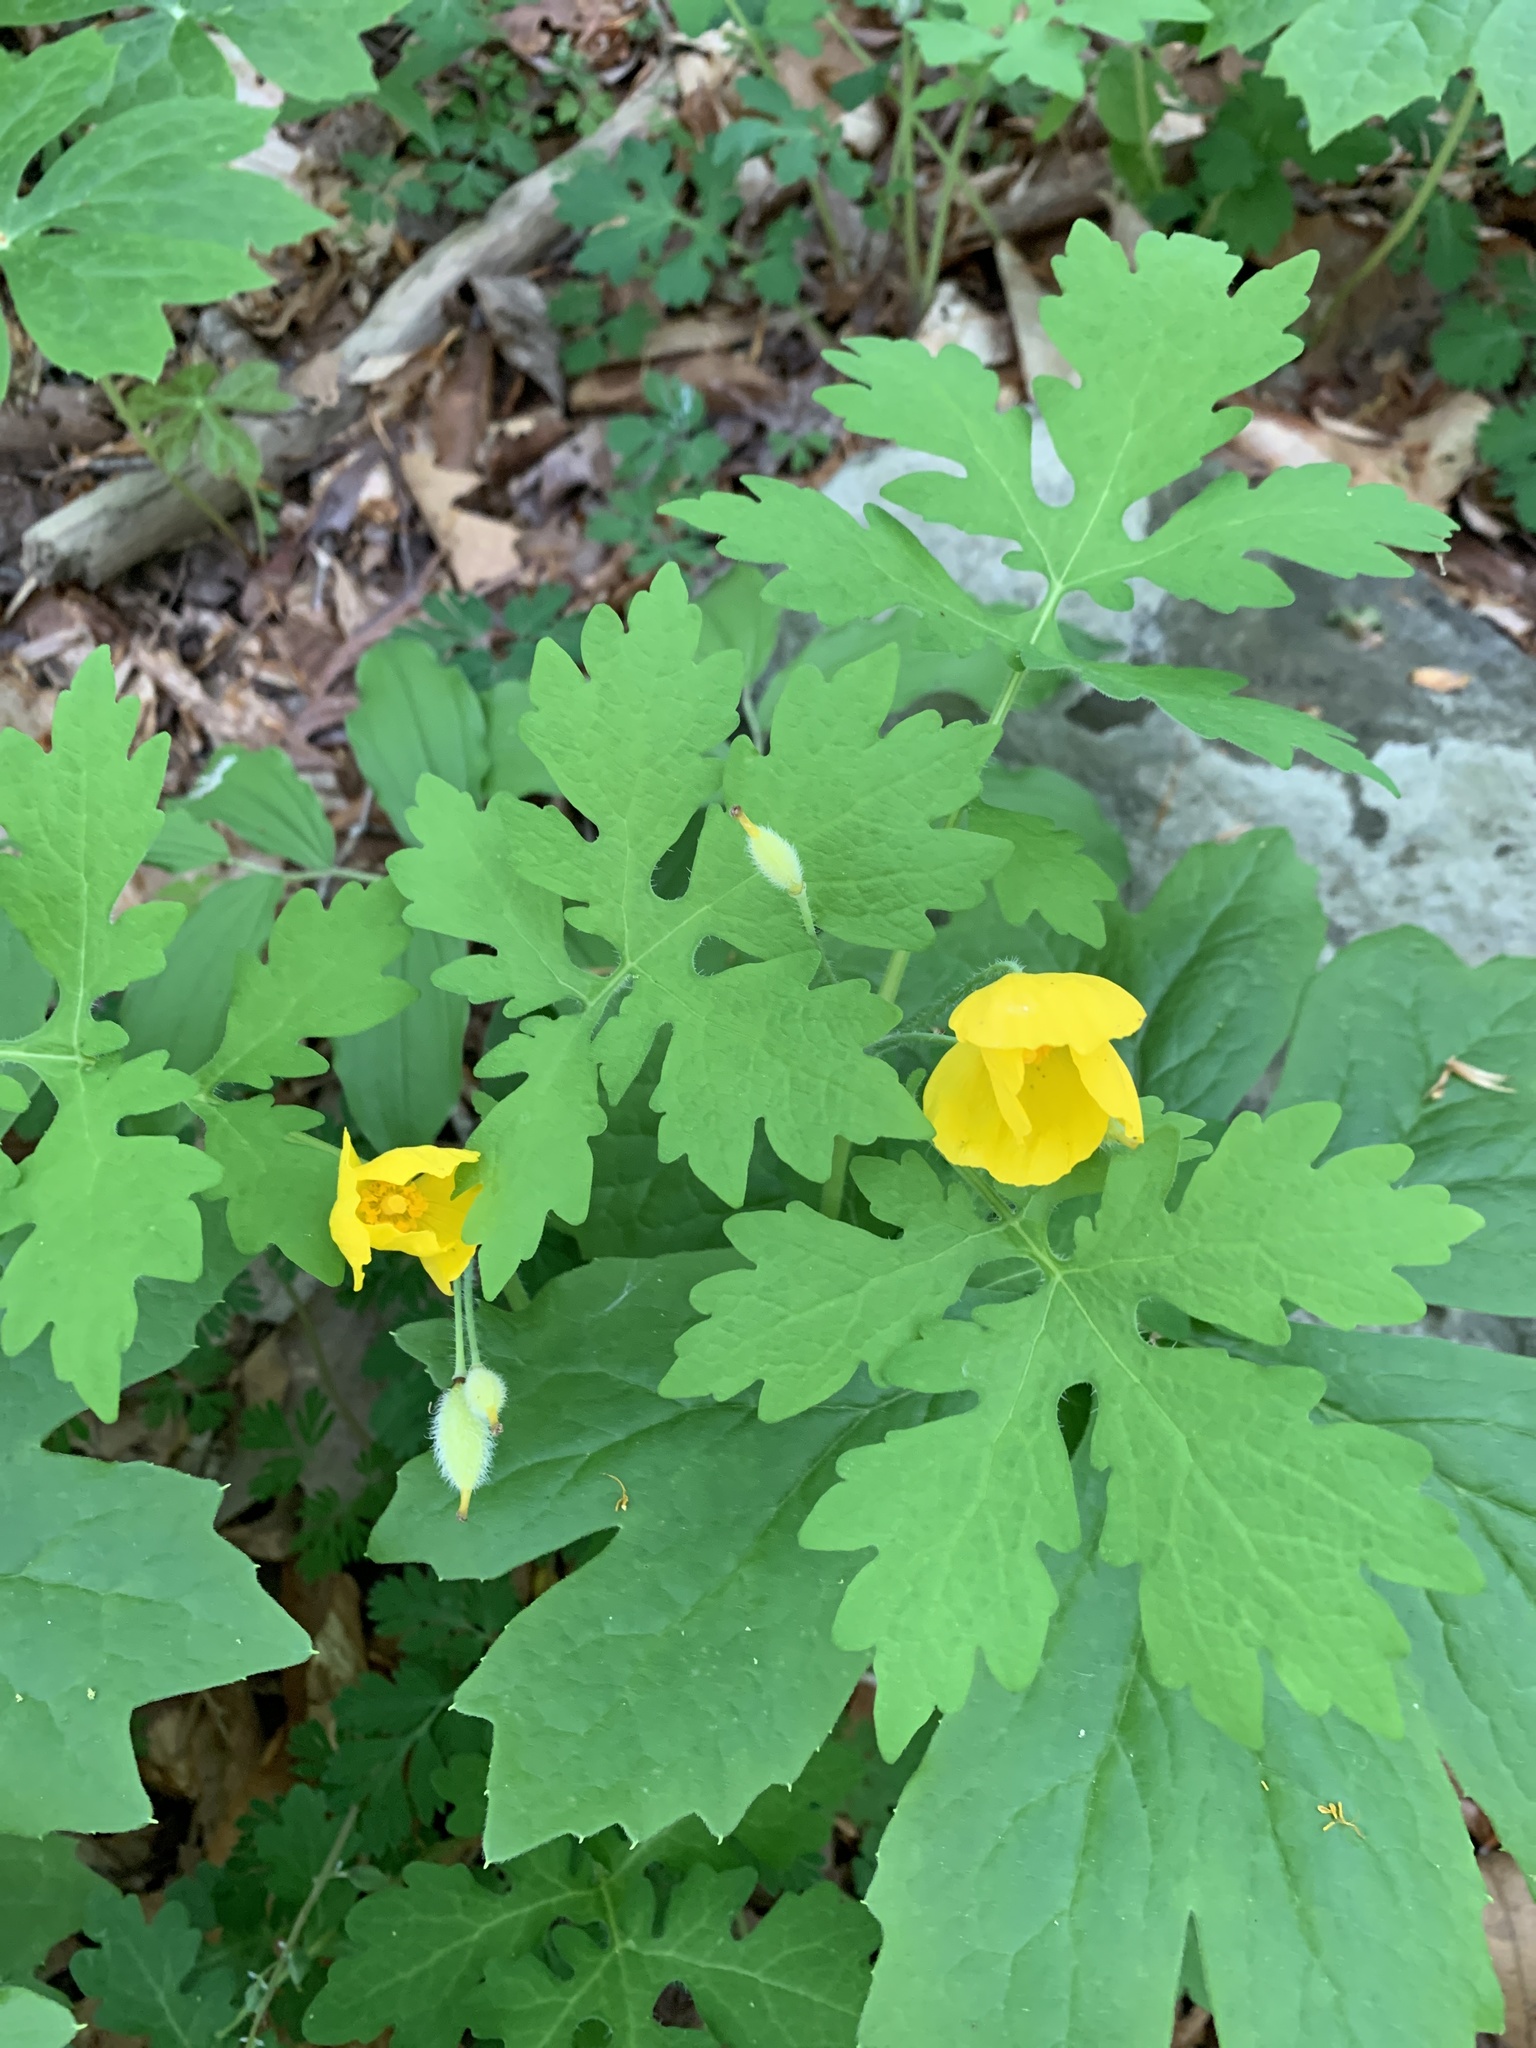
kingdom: Plantae
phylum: Tracheophyta
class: Magnoliopsida
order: Ranunculales
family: Papaveraceae
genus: Stylophorum
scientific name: Stylophorum diphyllum
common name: Celandine poppy
